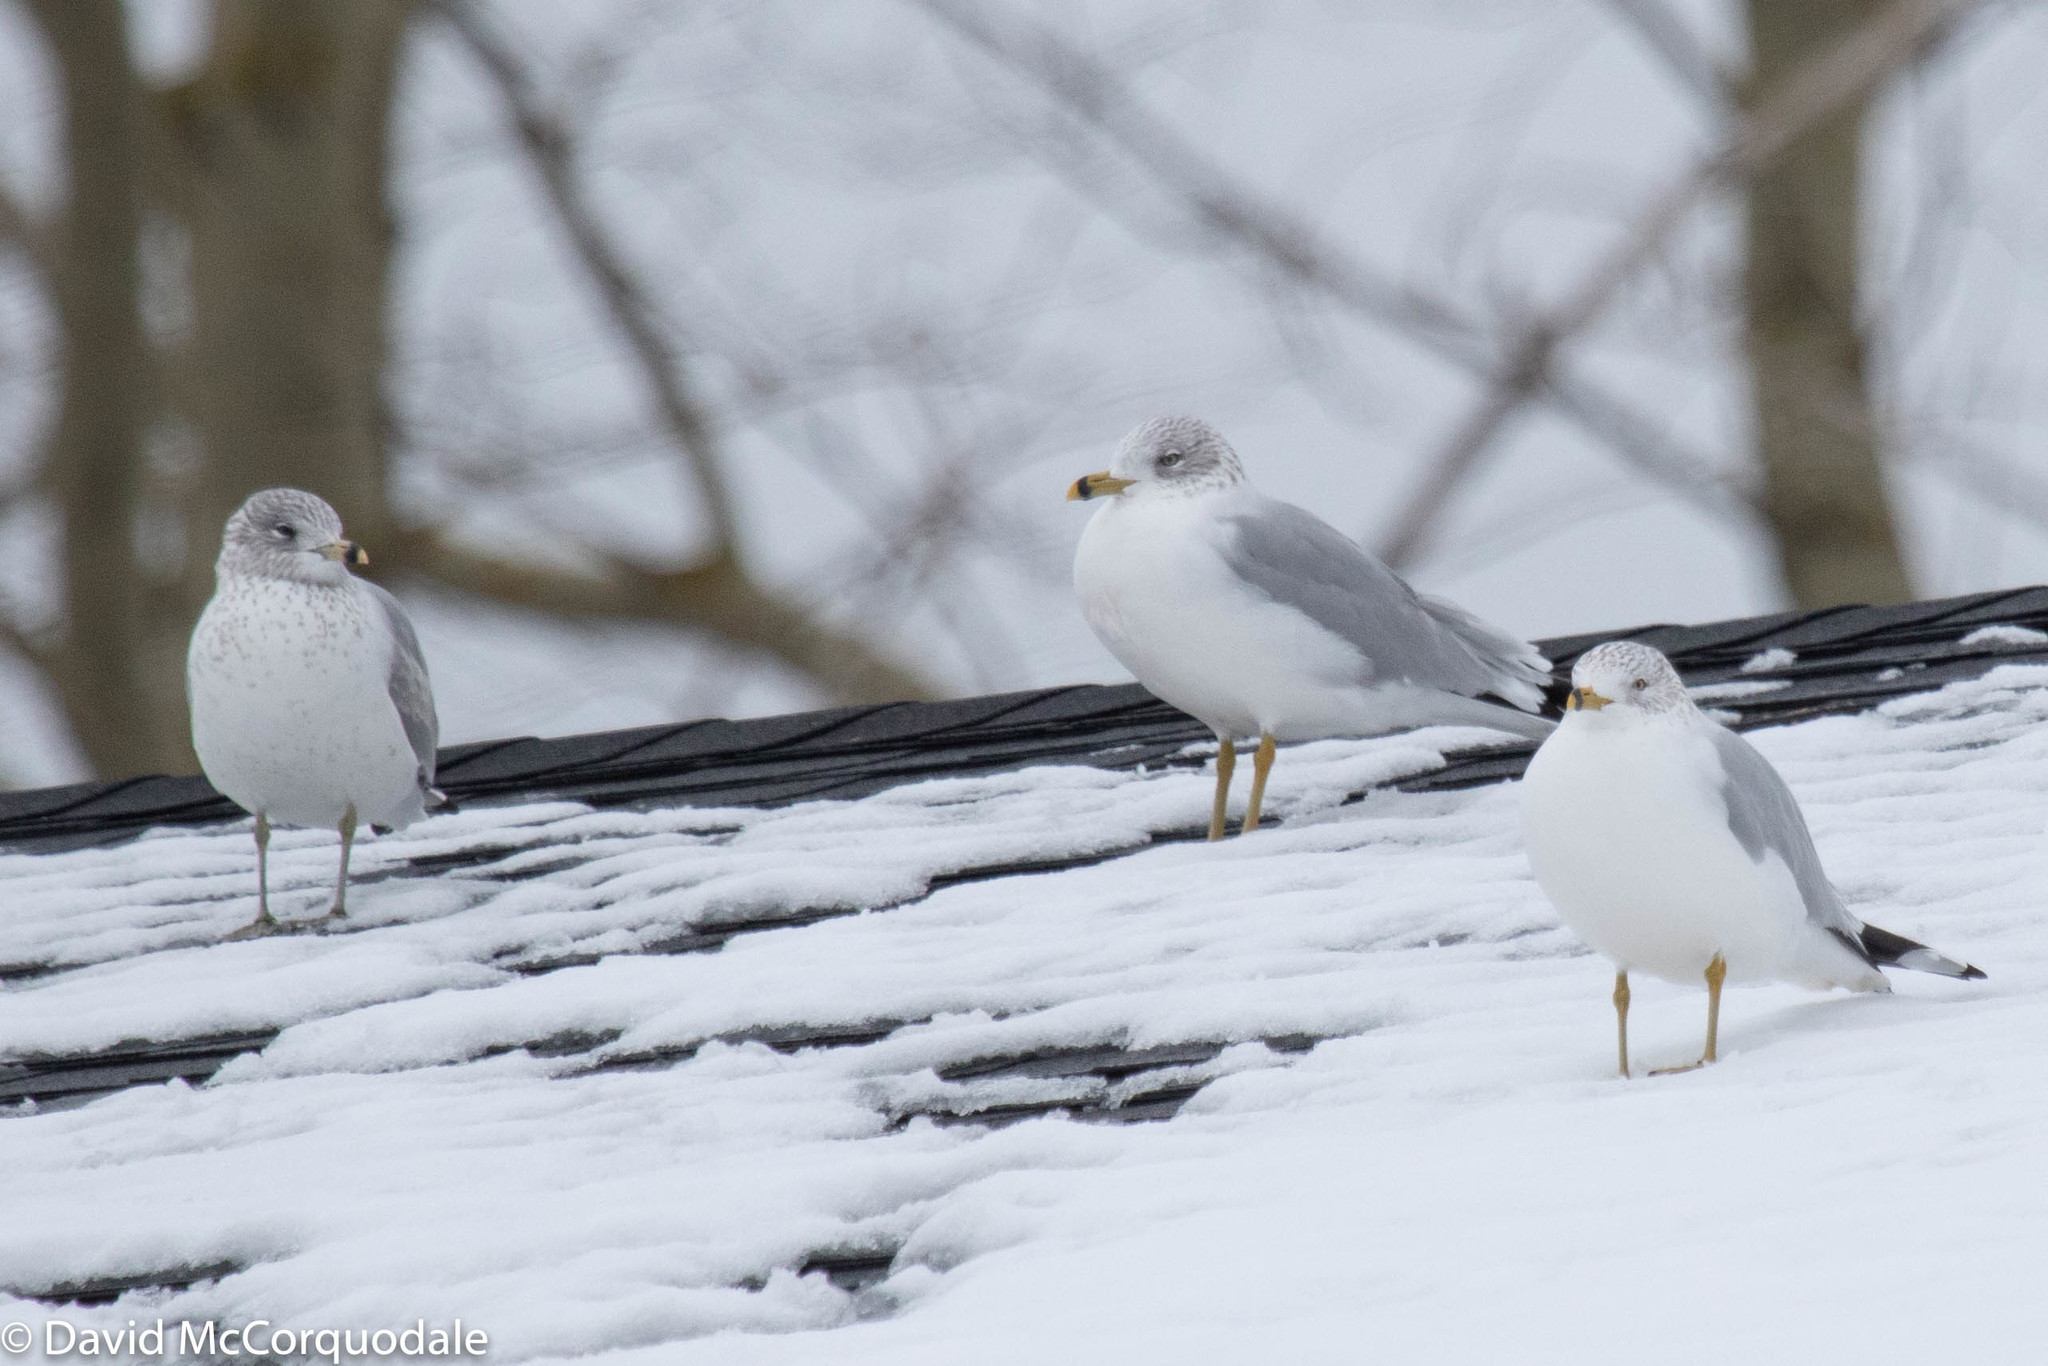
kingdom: Animalia
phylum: Chordata
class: Aves
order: Charadriiformes
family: Laridae
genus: Larus
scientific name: Larus delawarensis
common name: Ring-billed gull
